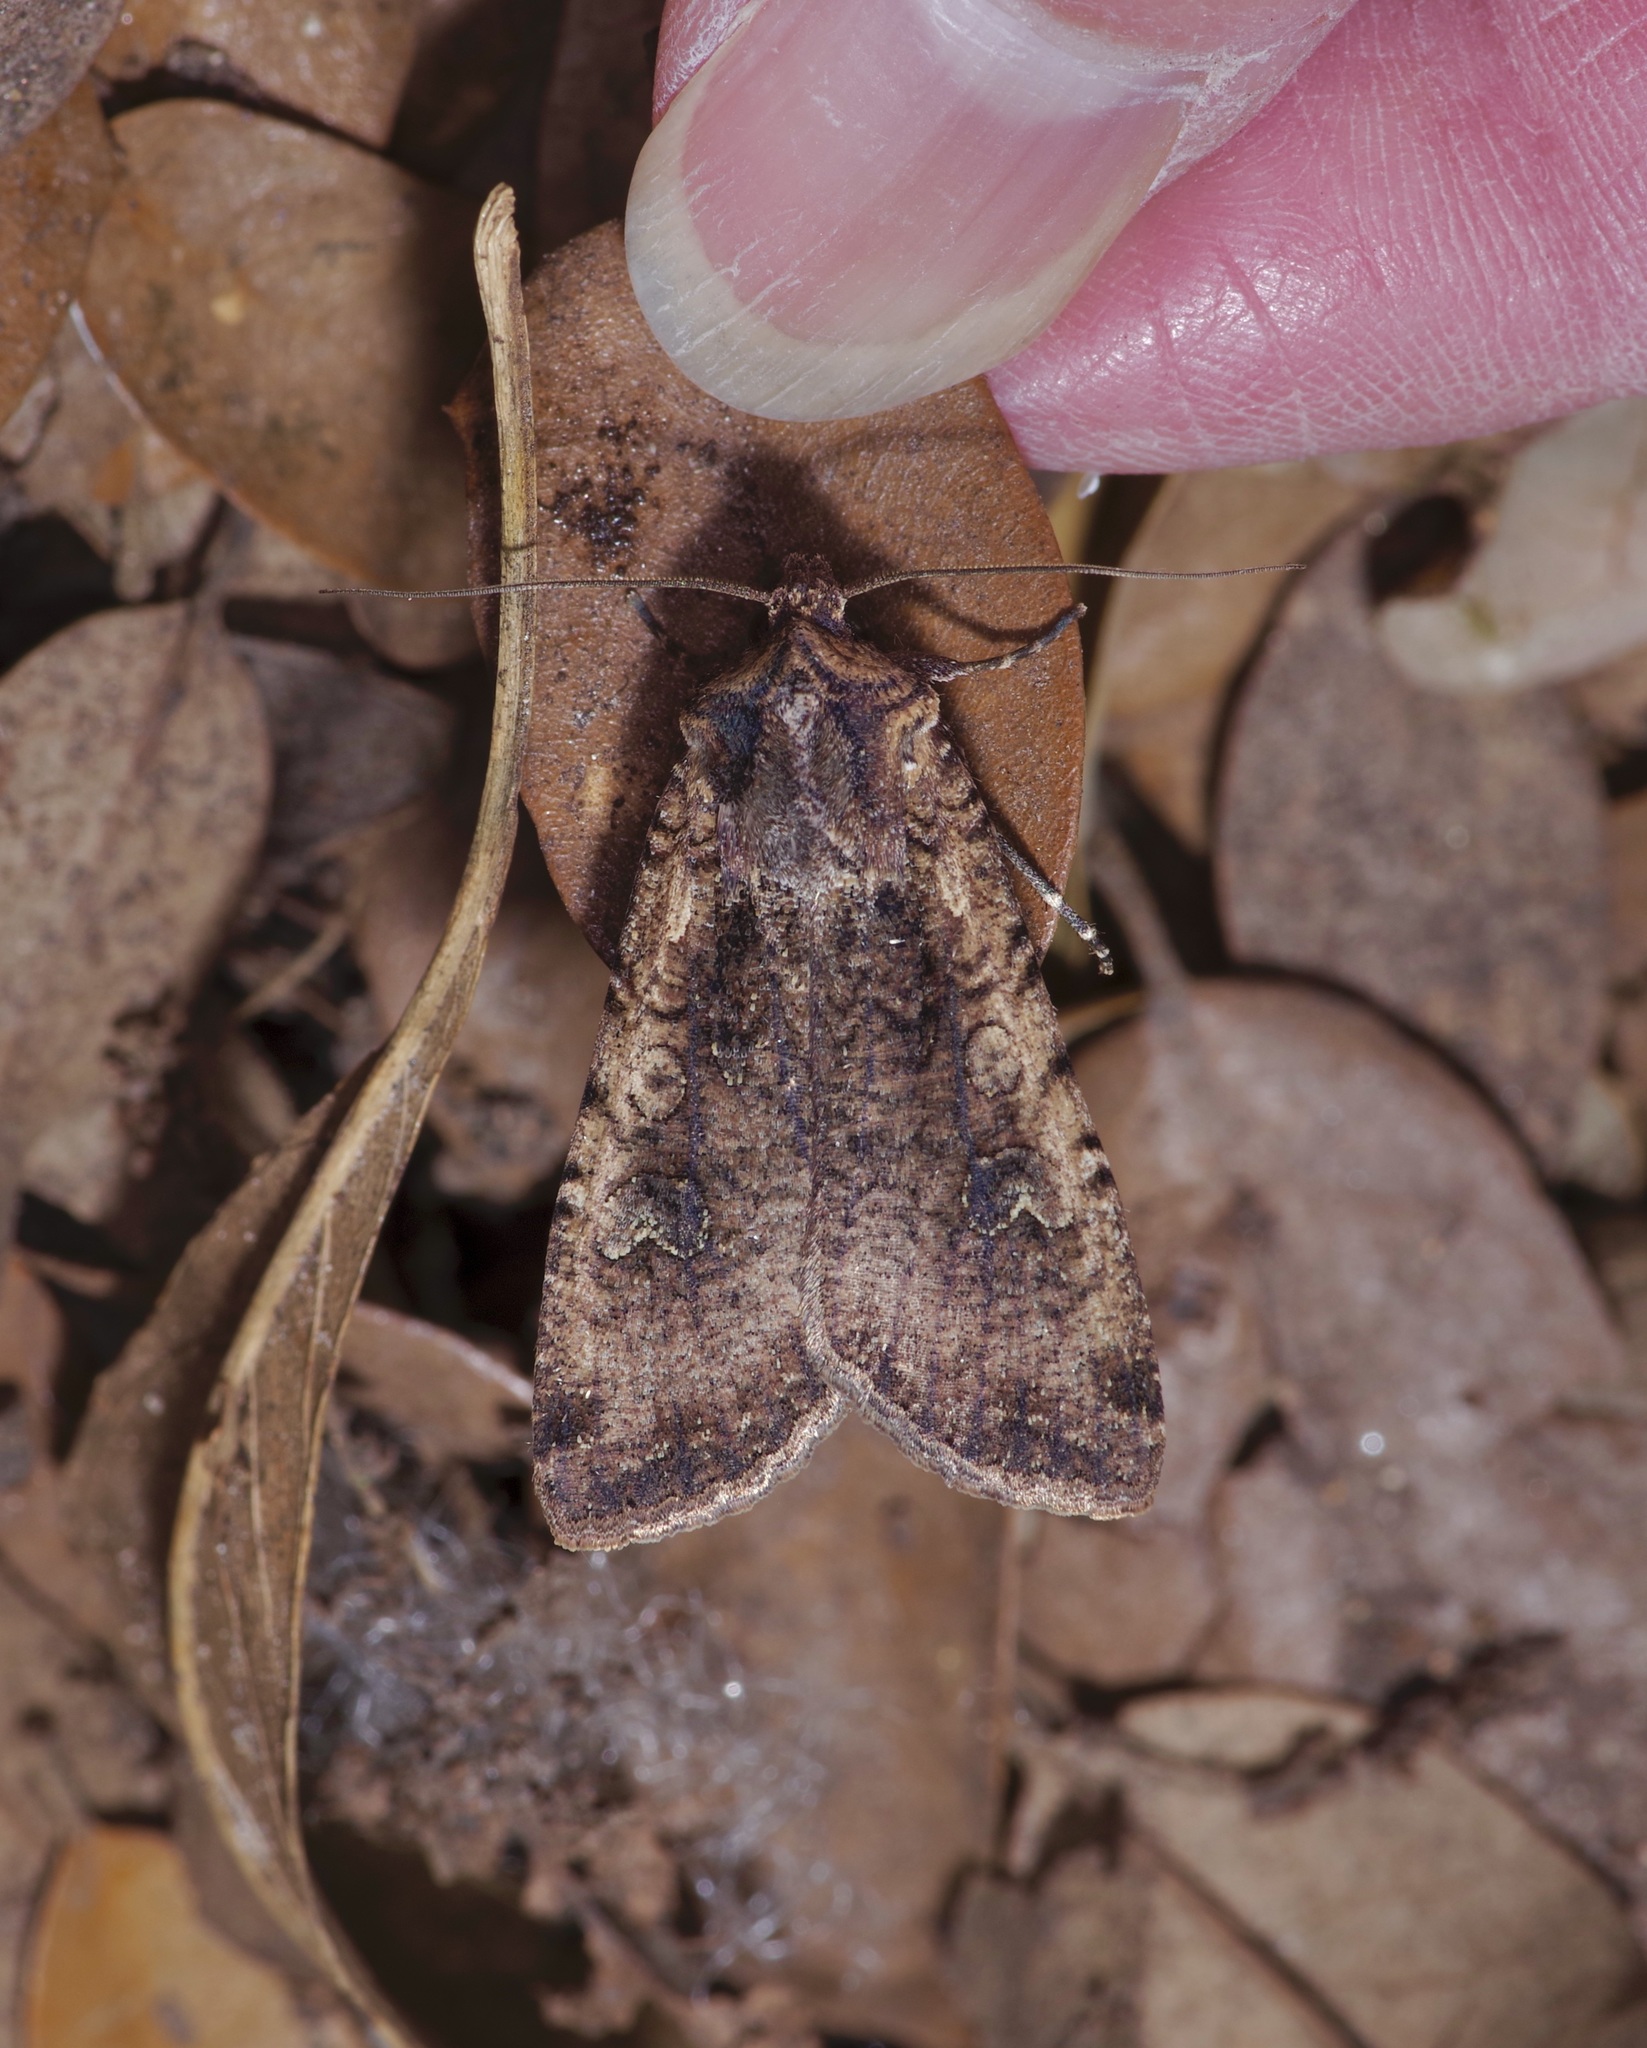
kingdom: Animalia
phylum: Arthropoda
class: Insecta
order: Lepidoptera
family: Noctuidae
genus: Peridroma
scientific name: Peridroma saucia
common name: Pearly underwing
